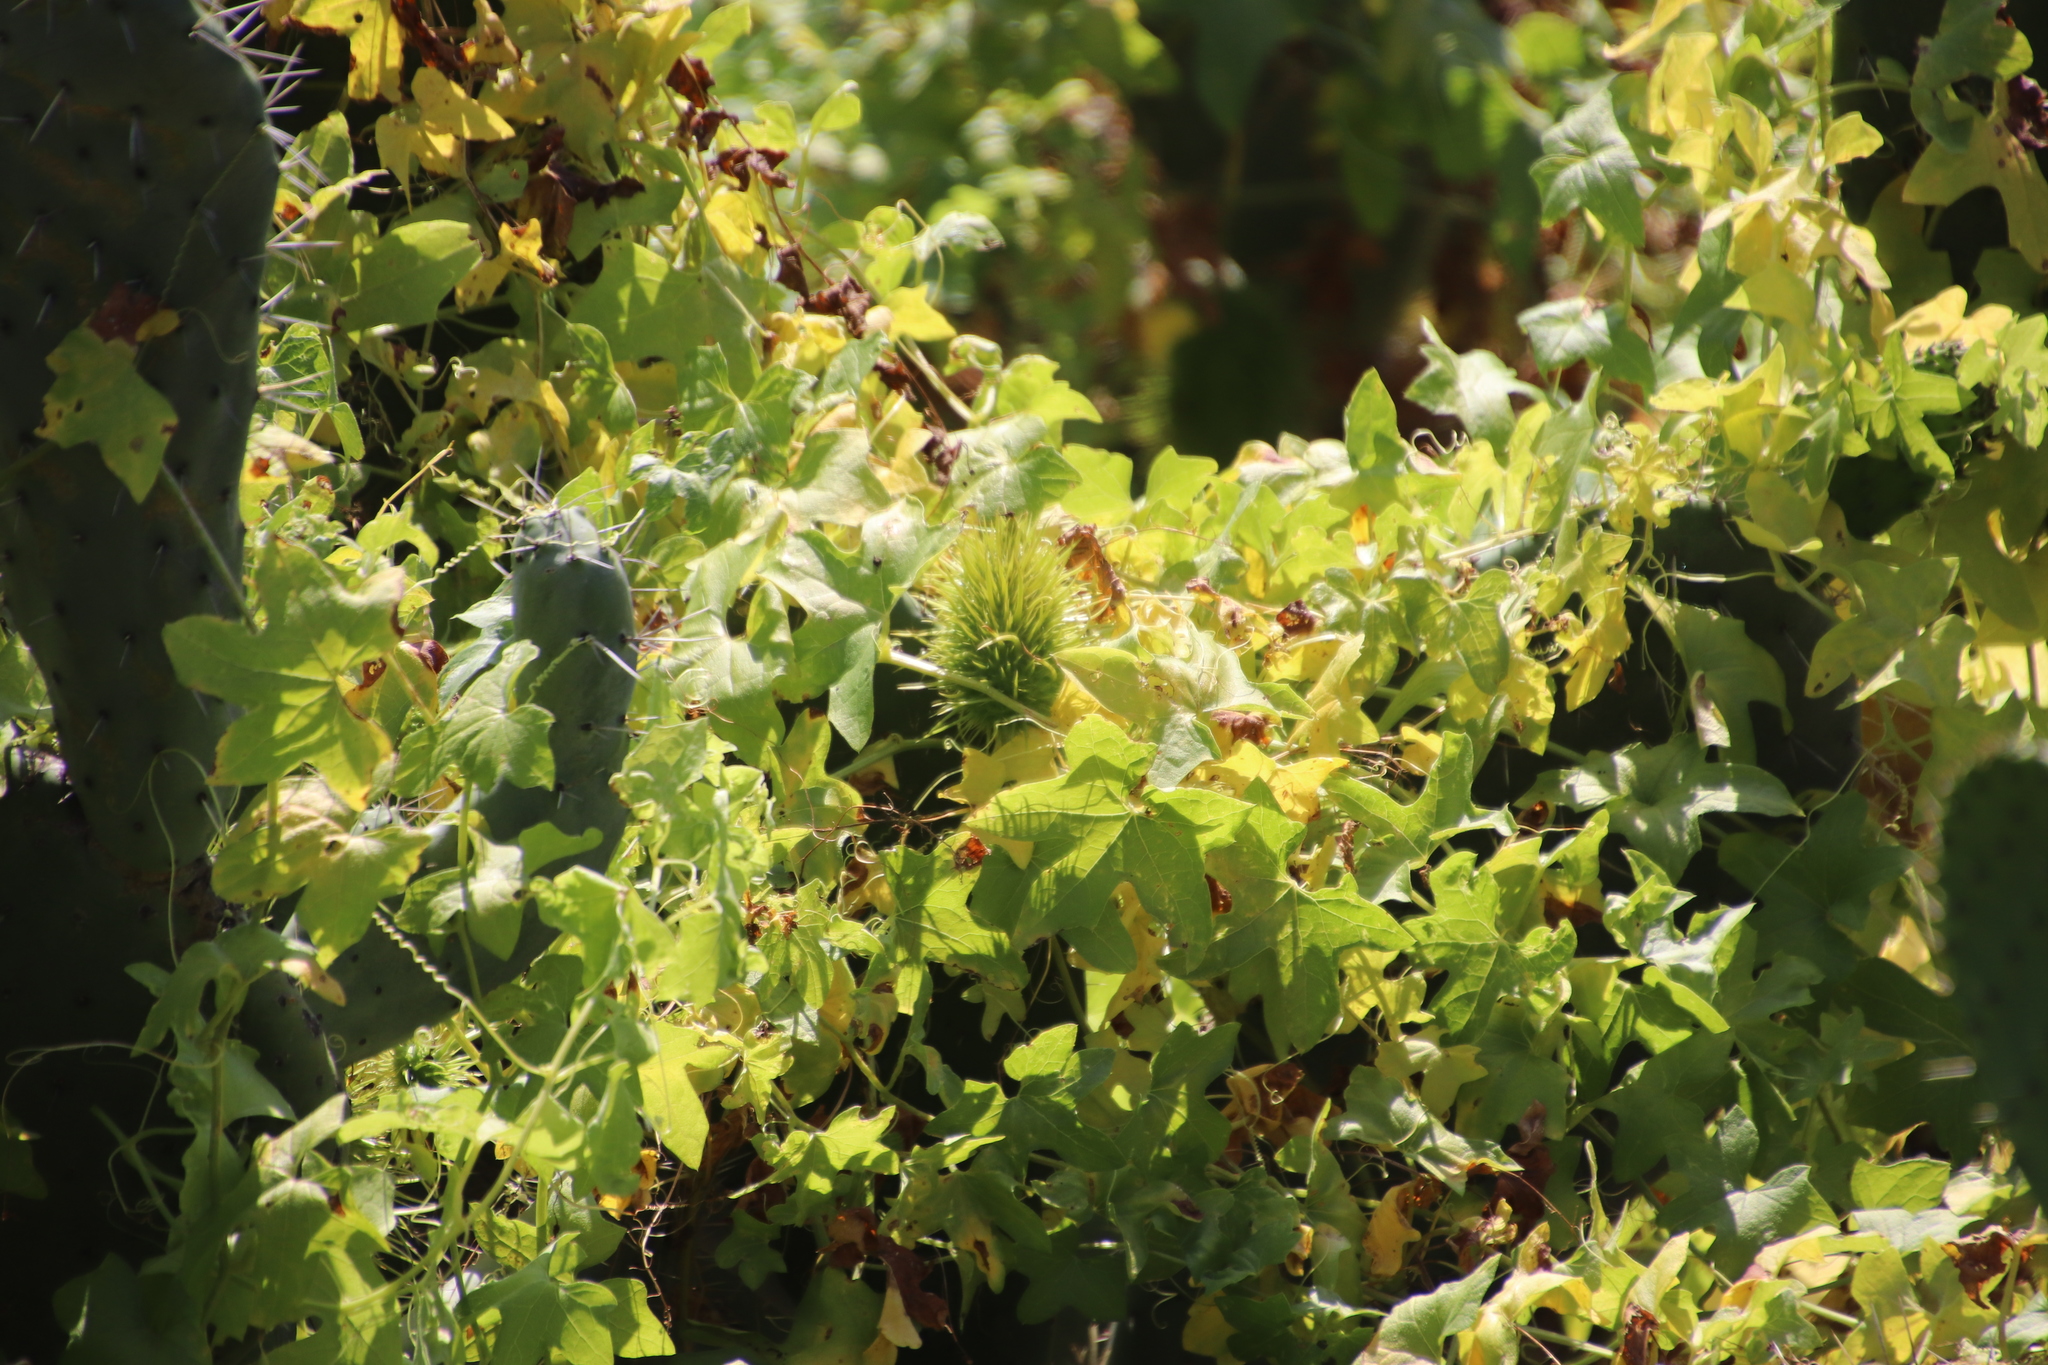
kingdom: Plantae
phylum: Tracheophyta
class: Magnoliopsida
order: Cucurbitales
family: Cucurbitaceae
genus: Marah
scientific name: Marah macrocarpa
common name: Cucamonga manroot
